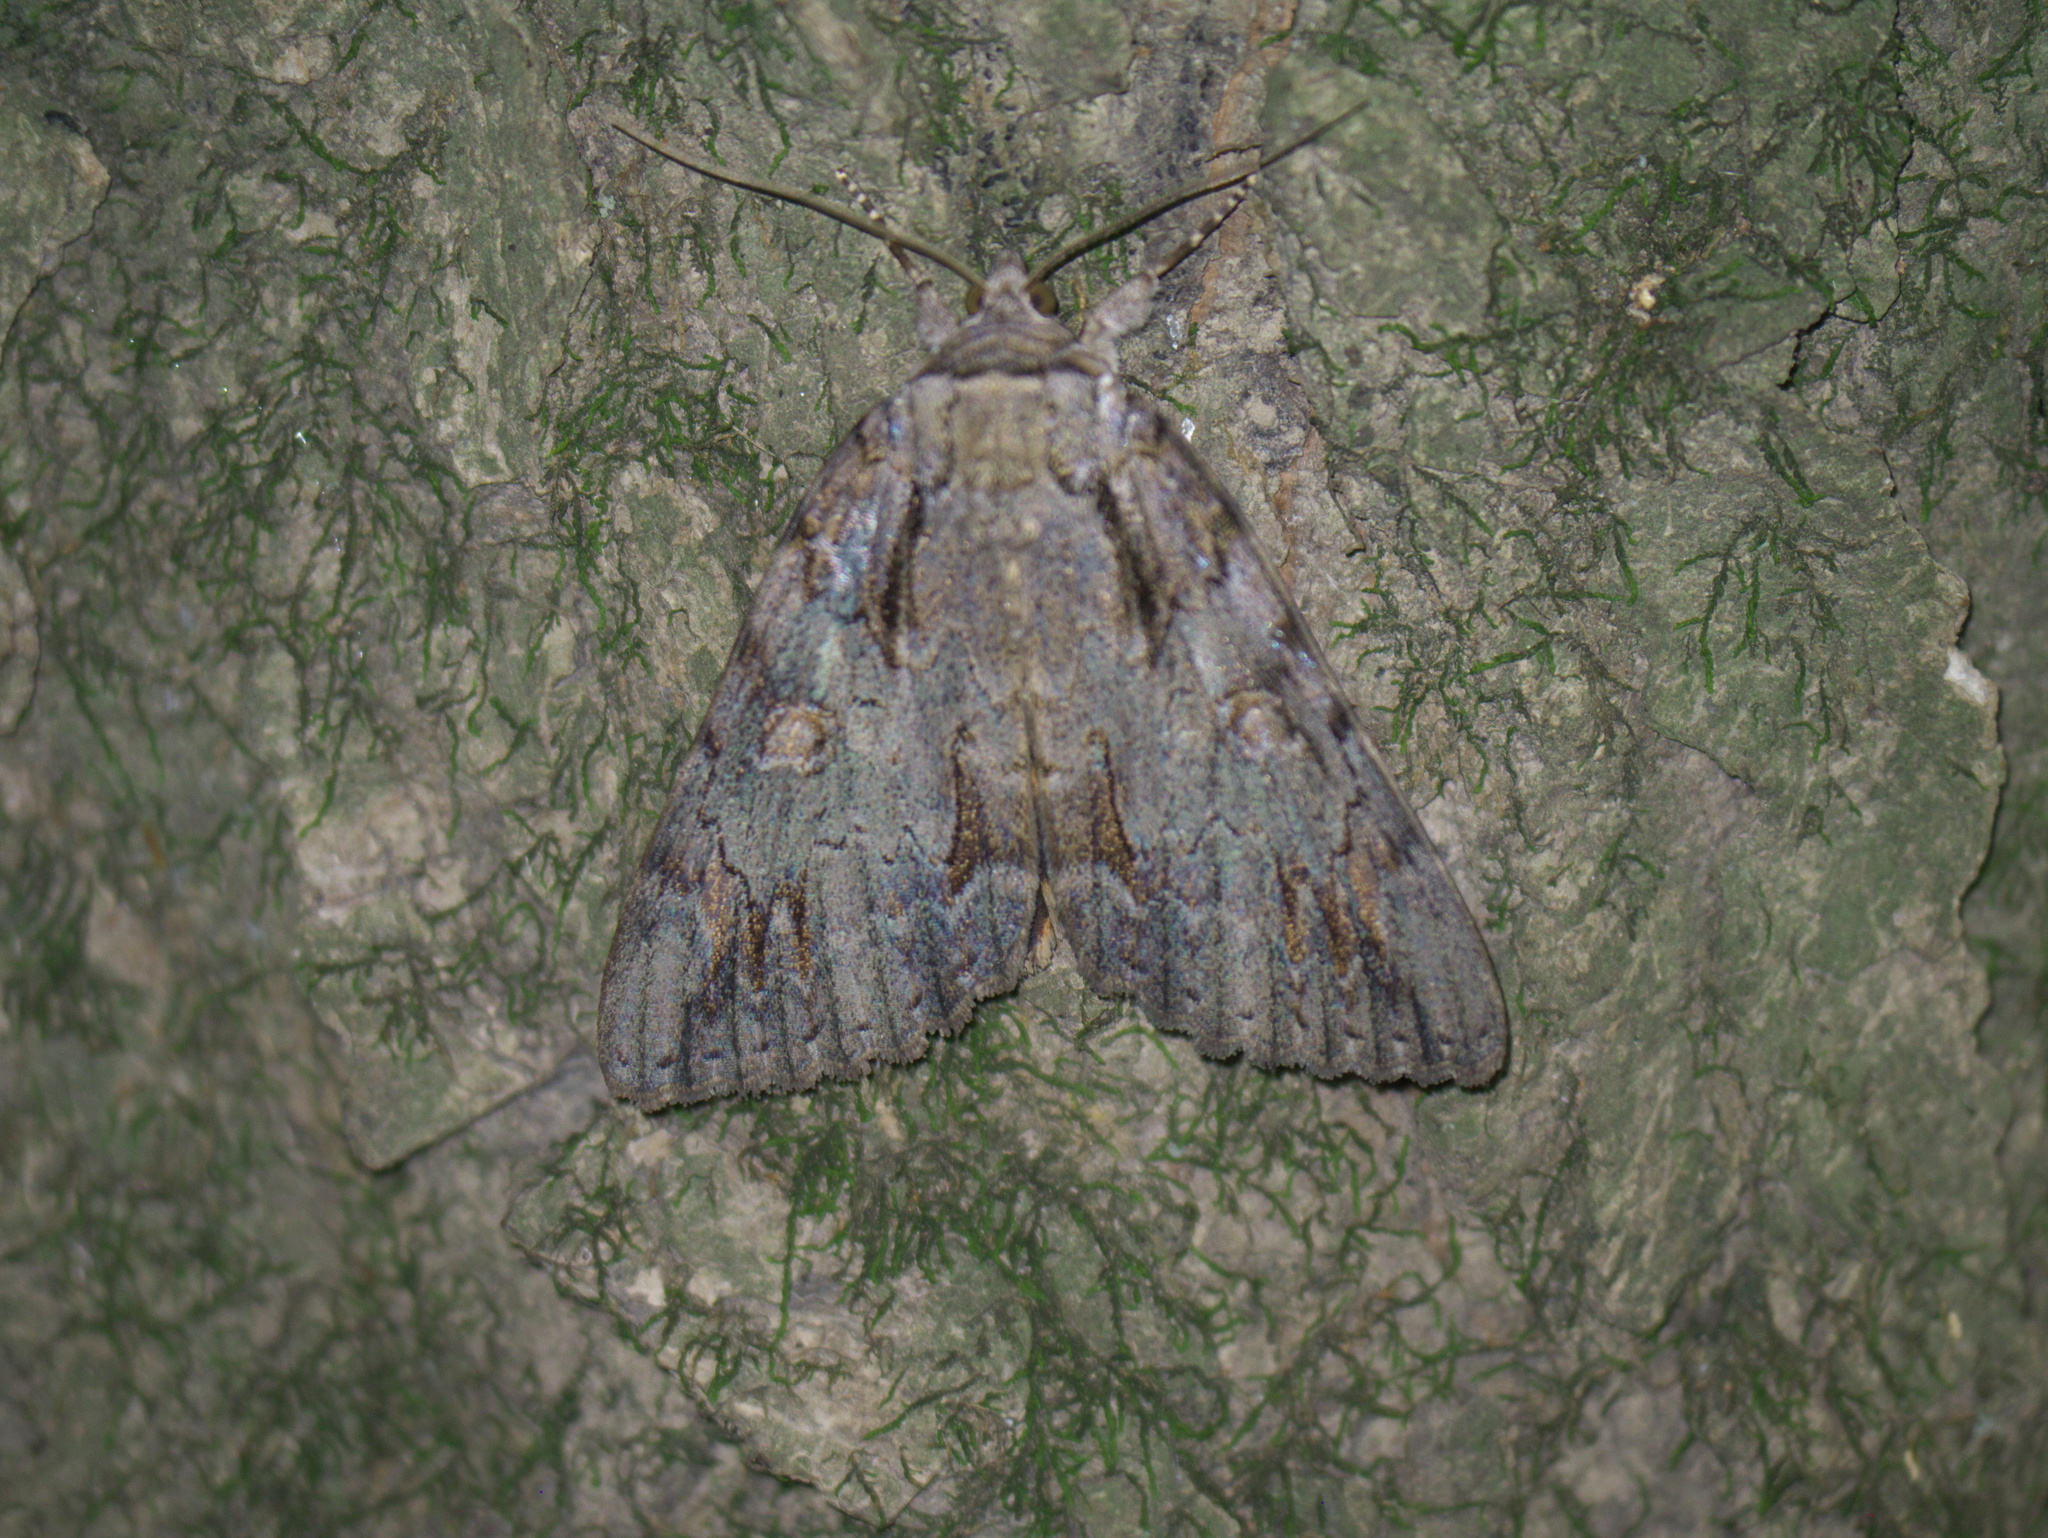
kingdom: Animalia
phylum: Arthropoda
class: Insecta
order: Lepidoptera
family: Erebidae
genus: Catocala
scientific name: Catocala neogama
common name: Bride underwing
